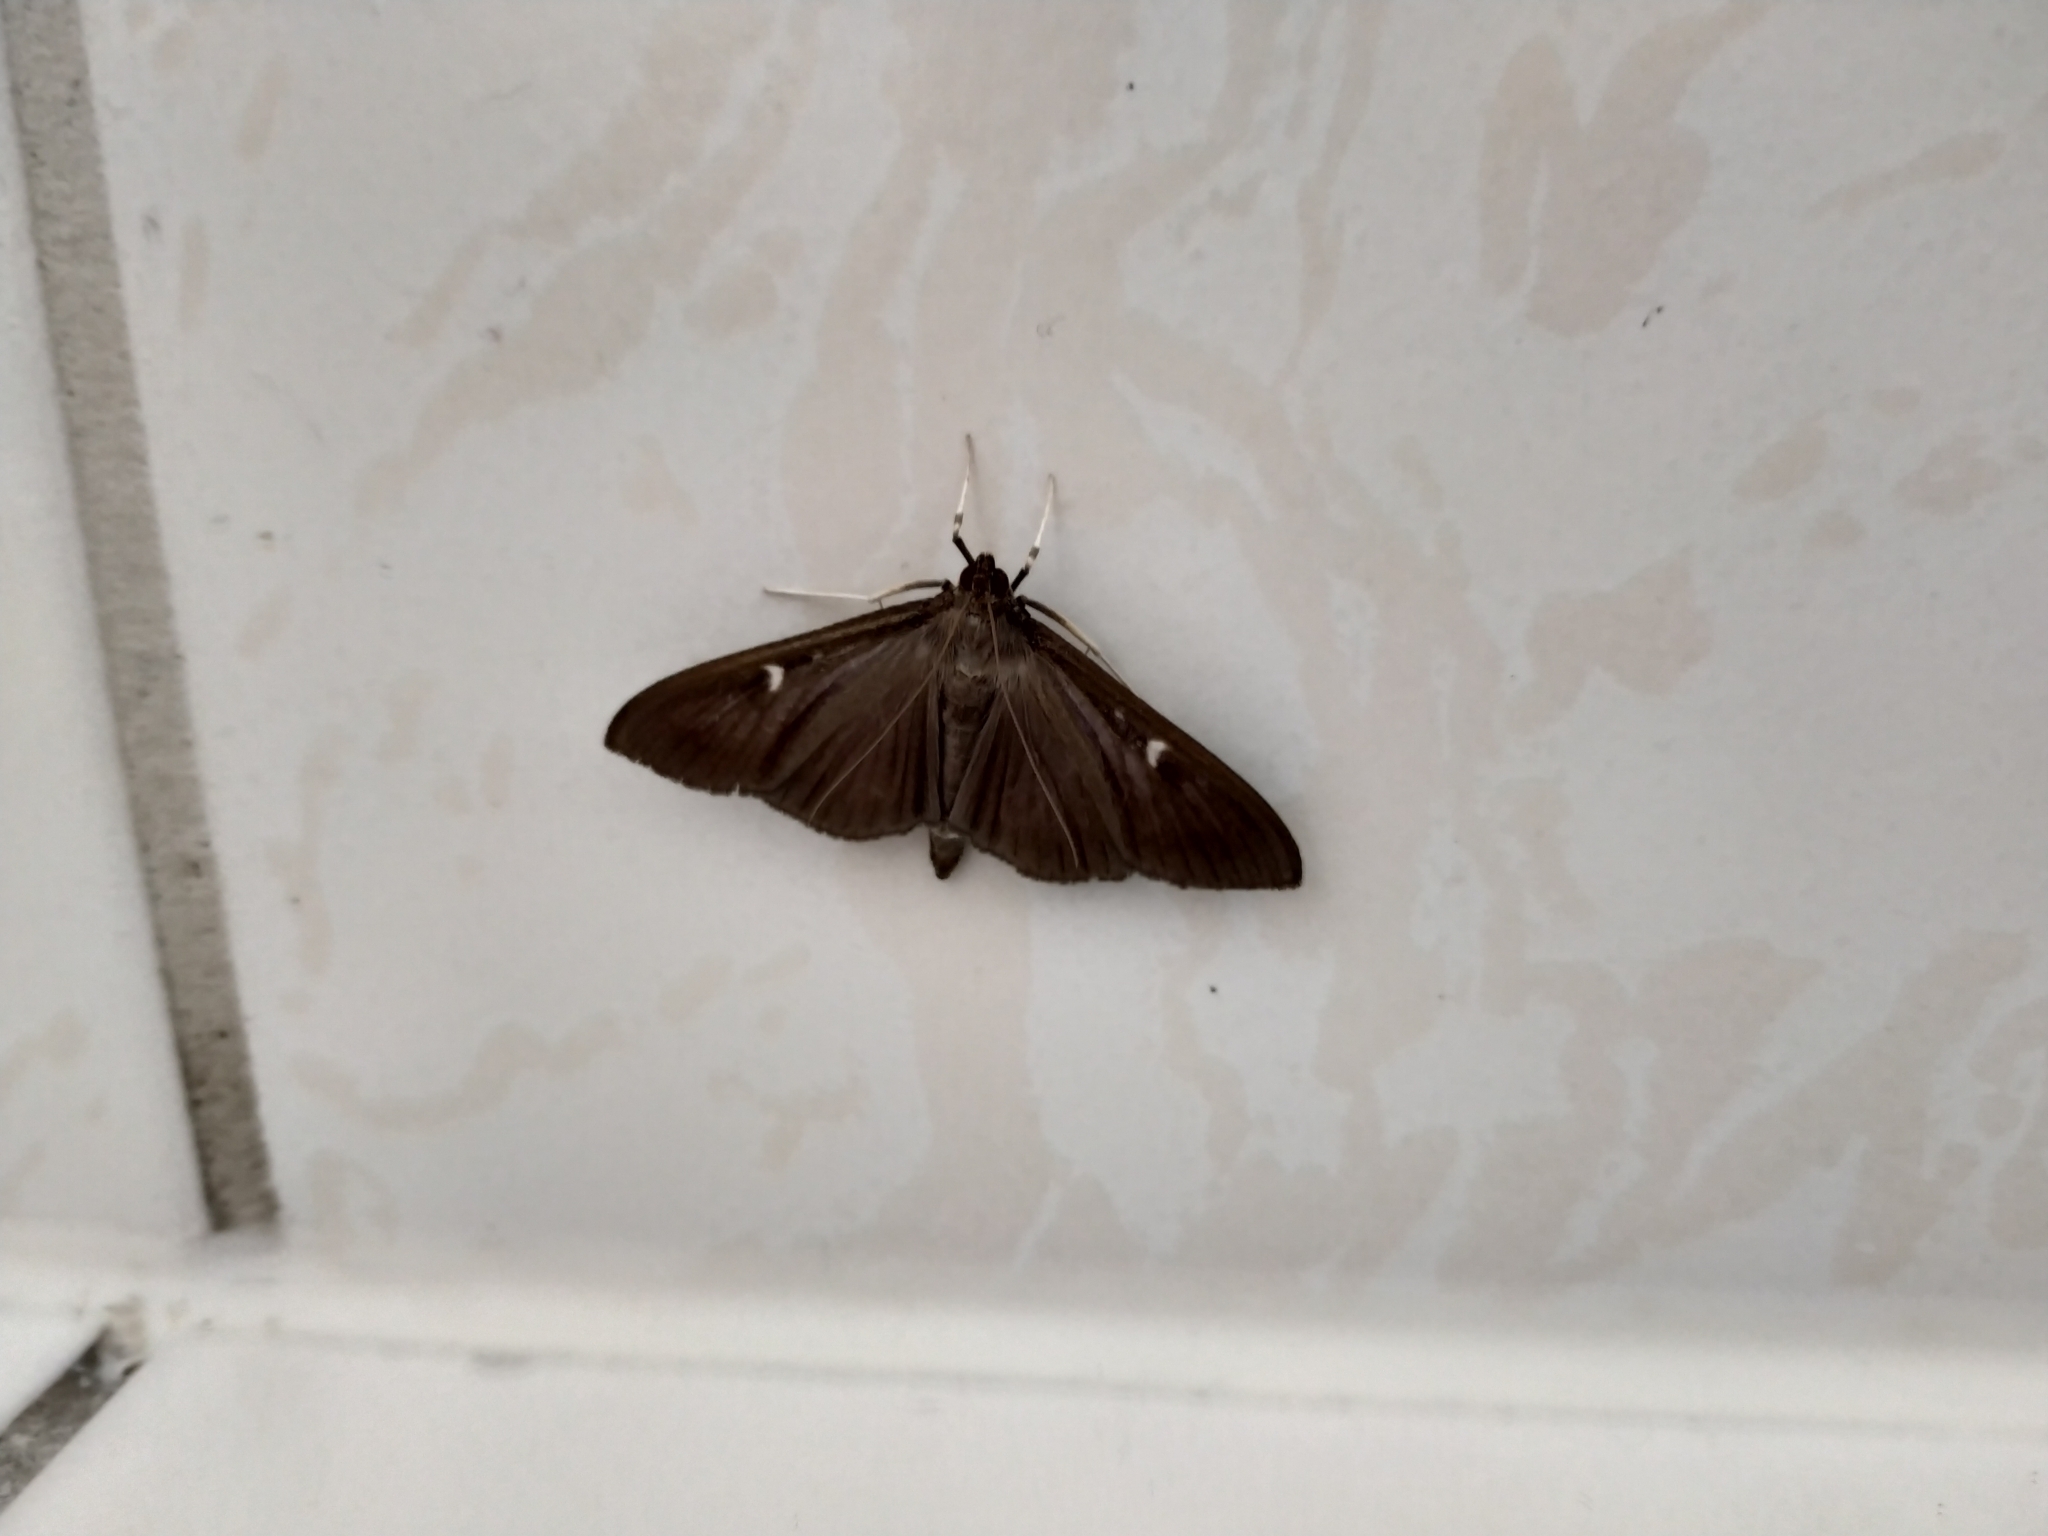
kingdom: Animalia
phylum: Arthropoda
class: Insecta
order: Lepidoptera
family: Crambidae
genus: Cydalima
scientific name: Cydalima perspectalis
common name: Box tree moth
